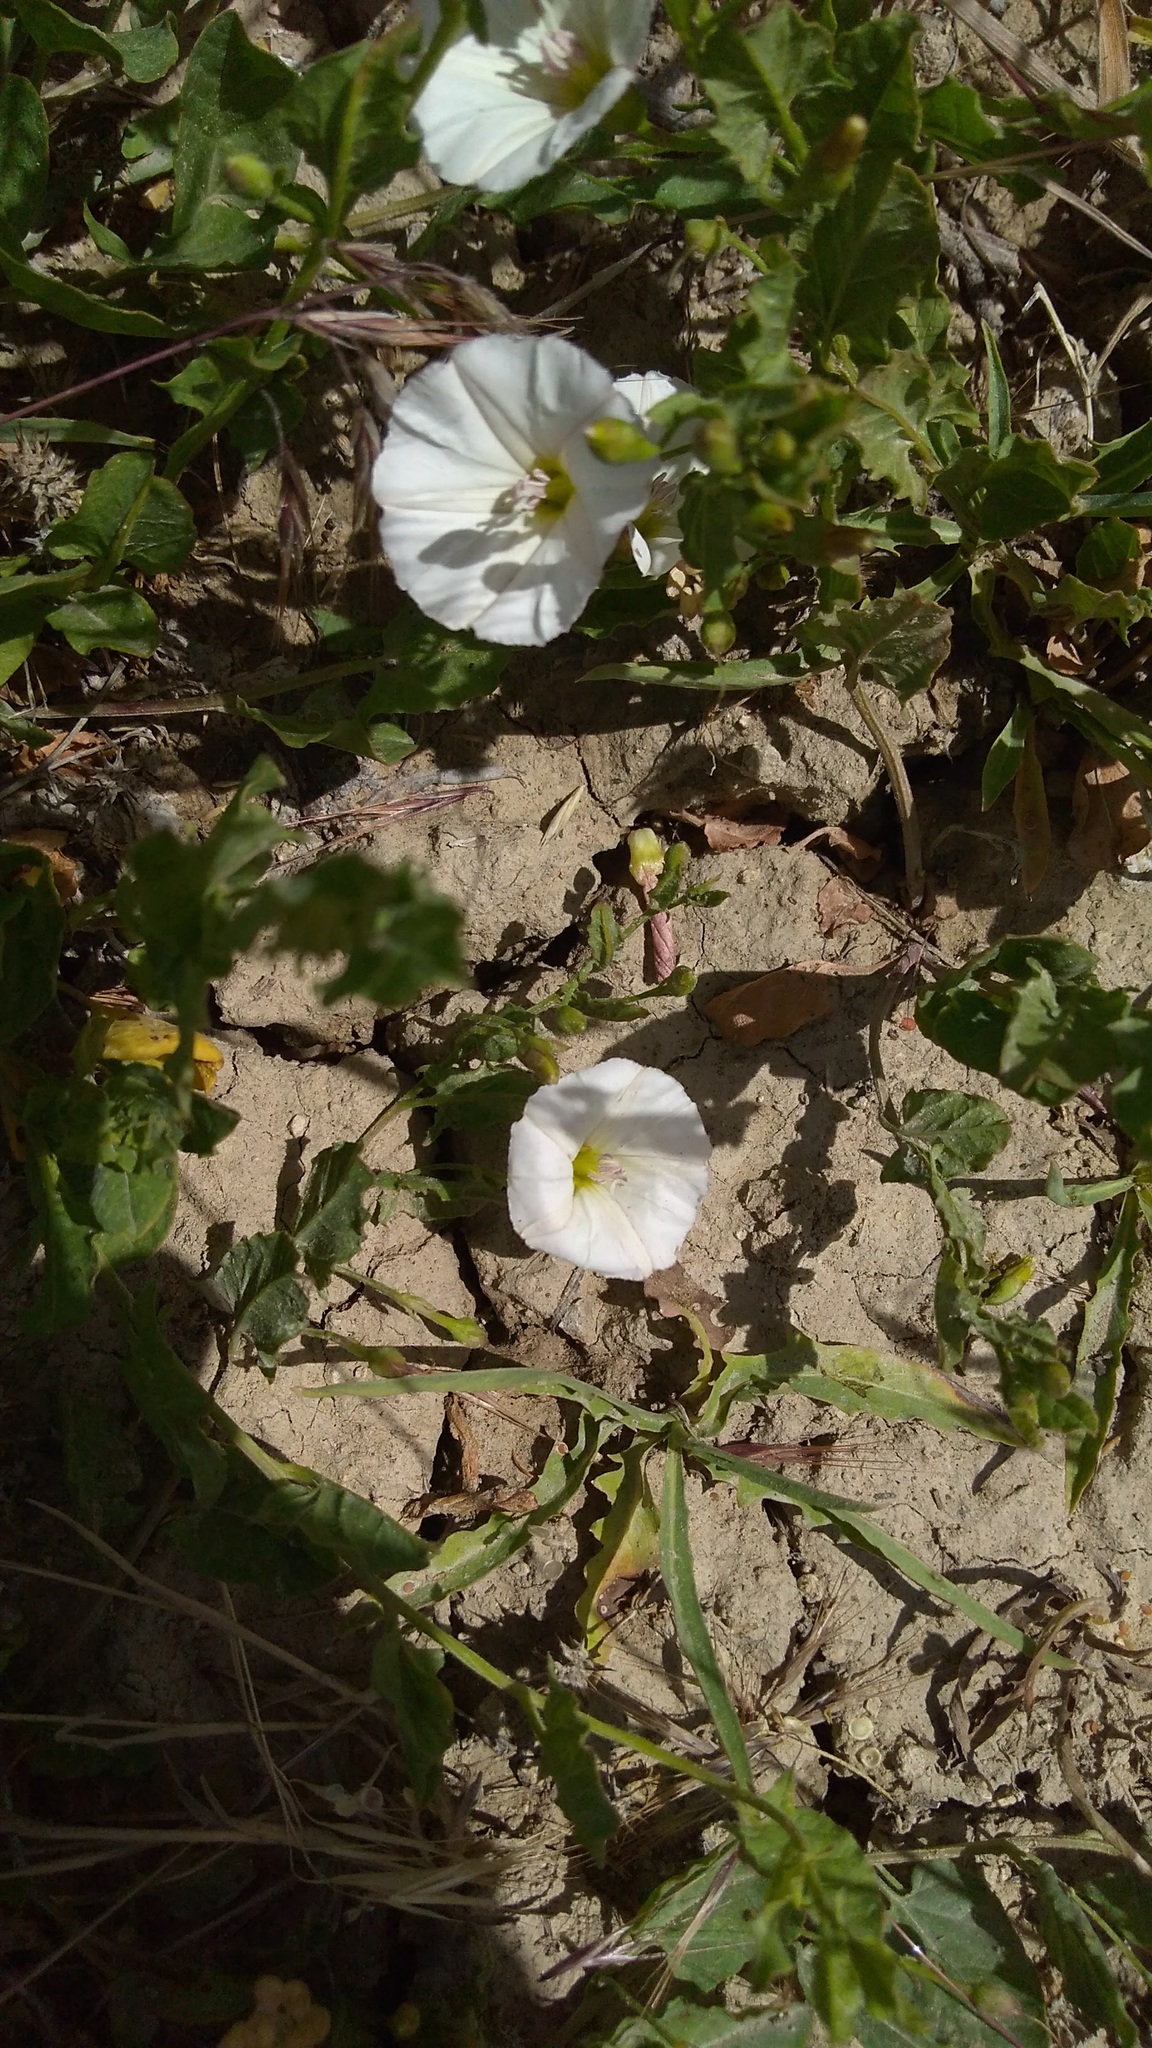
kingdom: Plantae
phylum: Tracheophyta
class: Magnoliopsida
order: Solanales
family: Convolvulaceae
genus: Convolvulus
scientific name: Convolvulus arvensis
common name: Field bindweed
